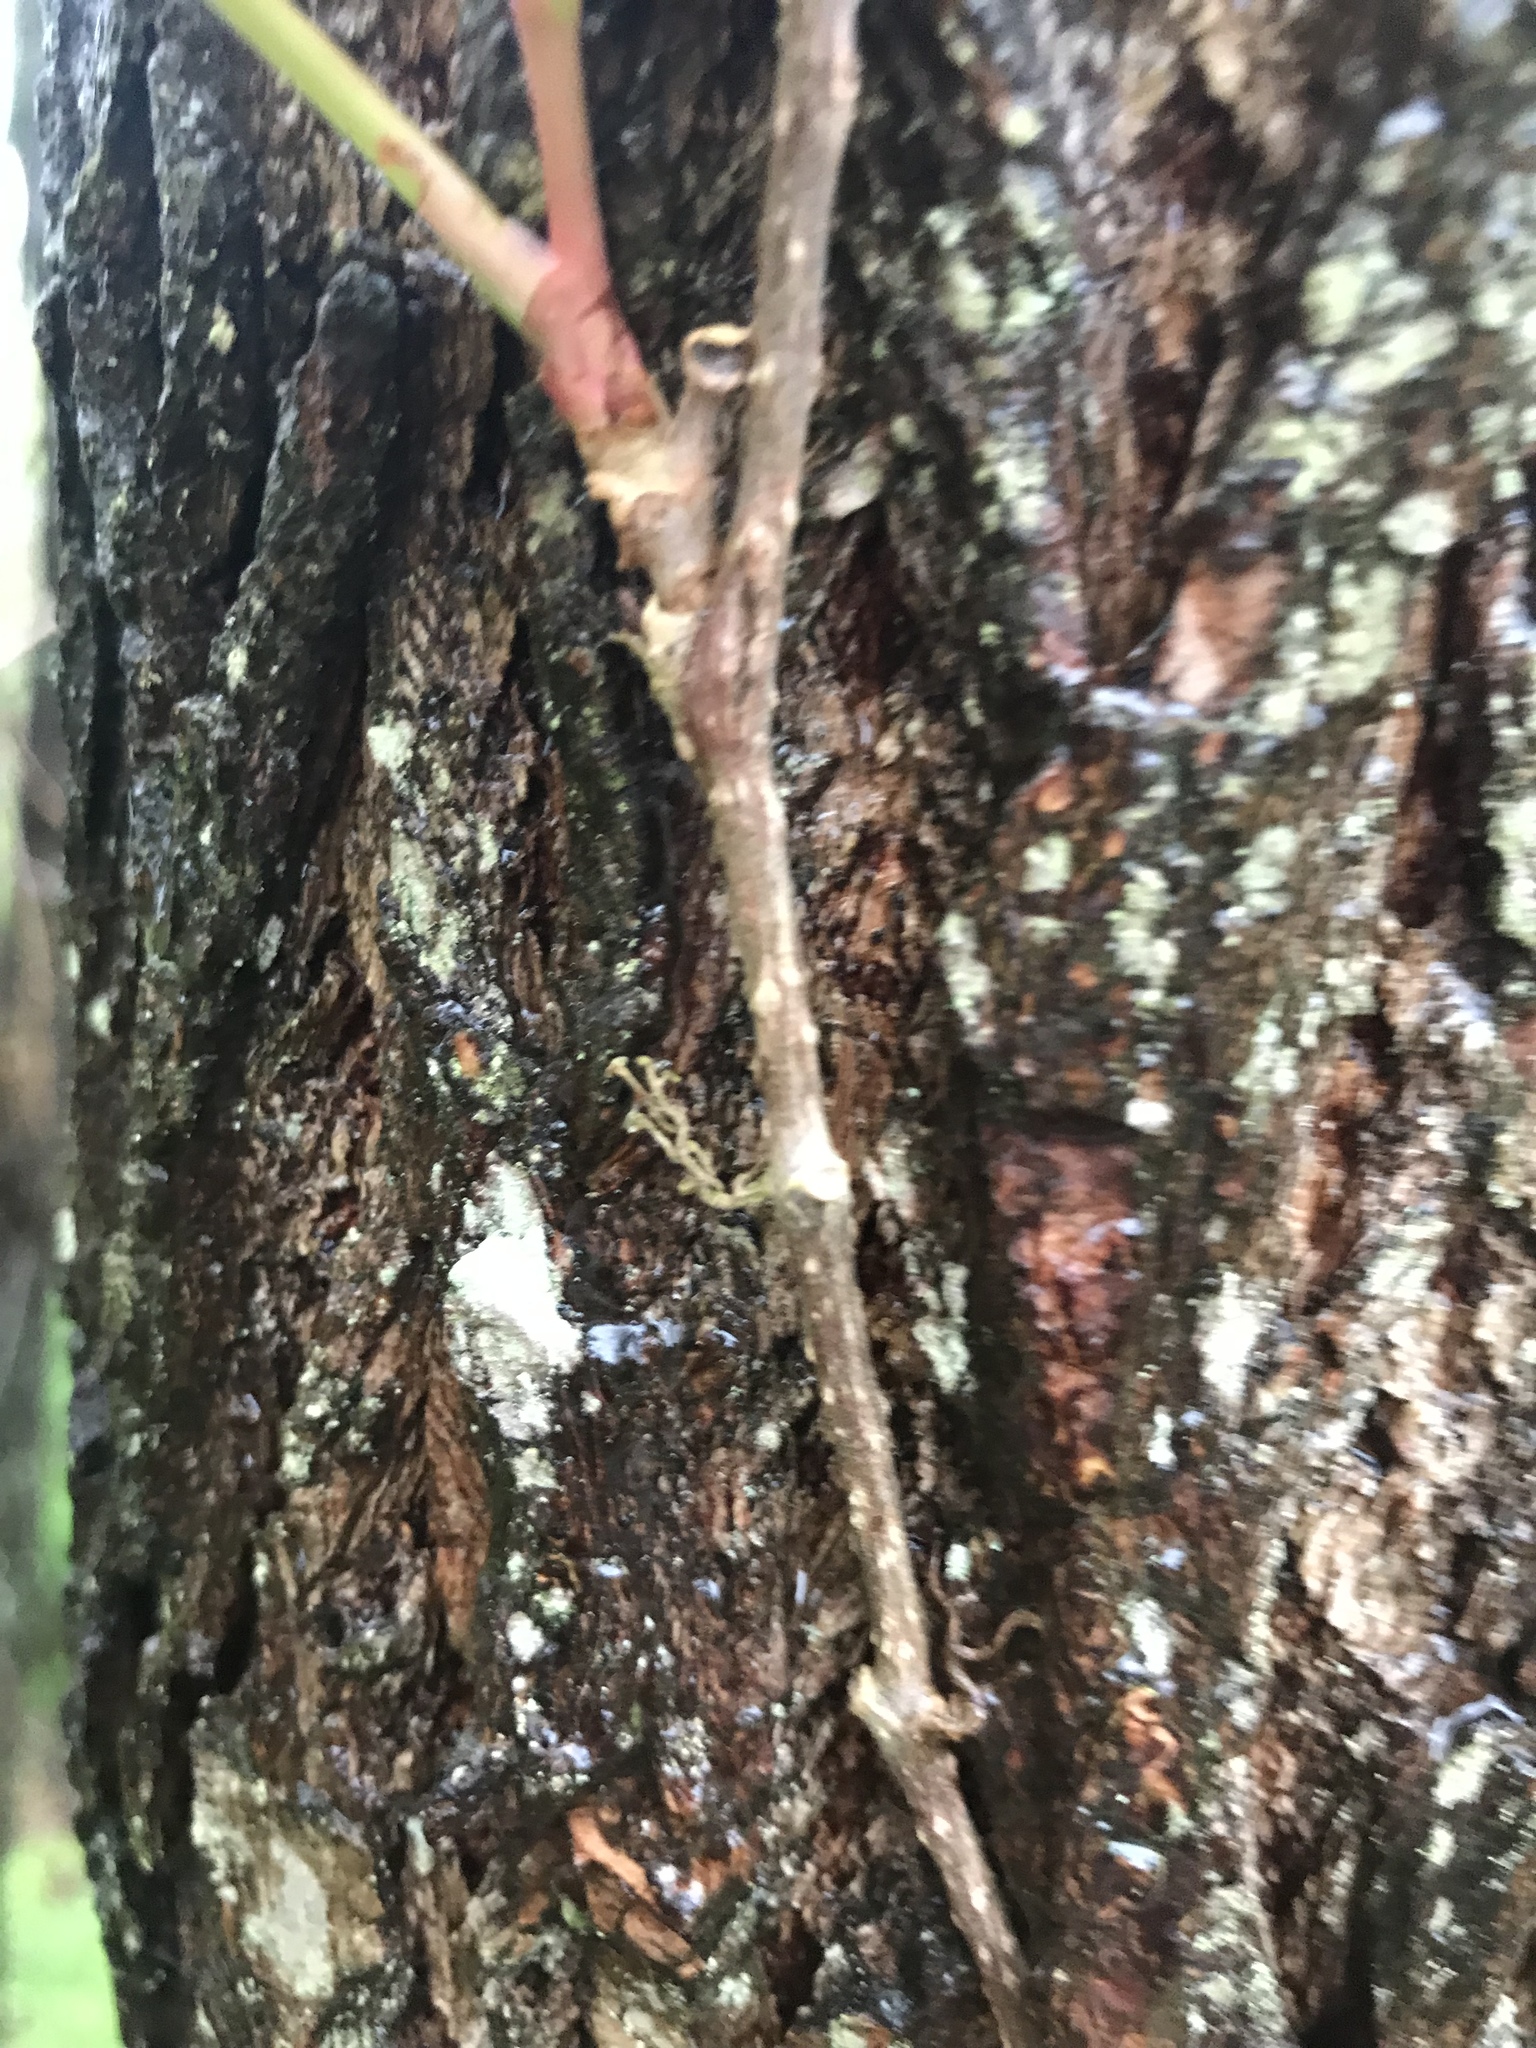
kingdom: Plantae
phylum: Tracheophyta
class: Magnoliopsida
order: Vitales
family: Vitaceae
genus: Parthenocissus
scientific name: Parthenocissus quinquefolia
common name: Virginia-creeper
